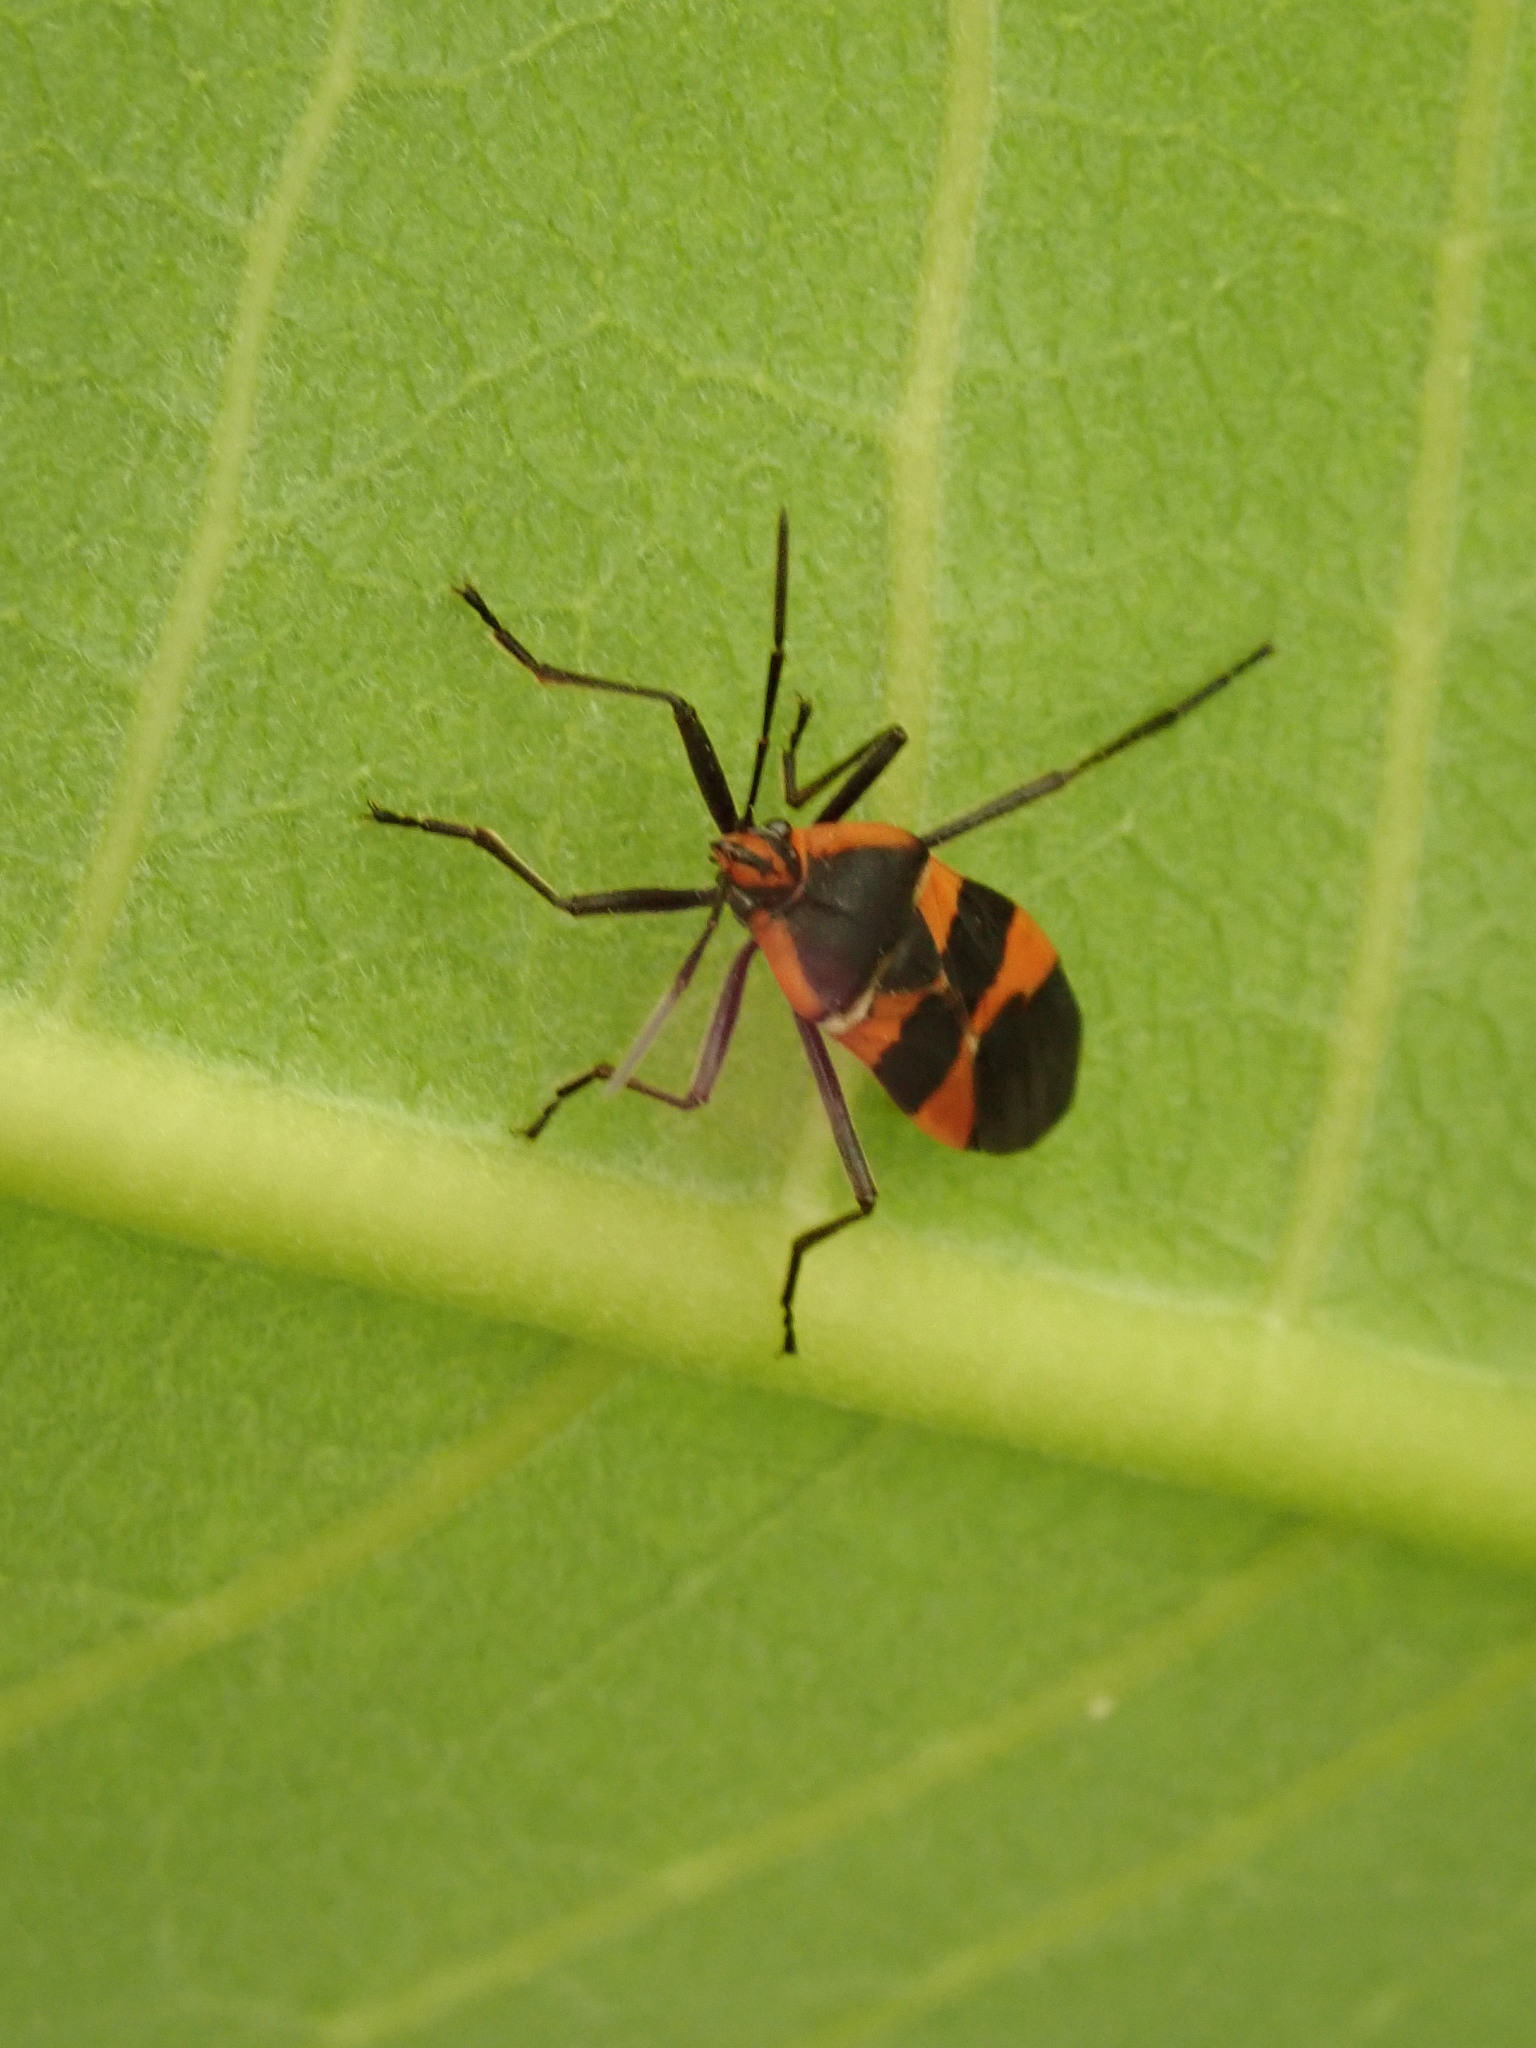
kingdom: Animalia
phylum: Arthropoda
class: Insecta
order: Hemiptera
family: Lygaeidae
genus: Oncopeltus
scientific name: Oncopeltus fasciatus
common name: Large milkweed bug
